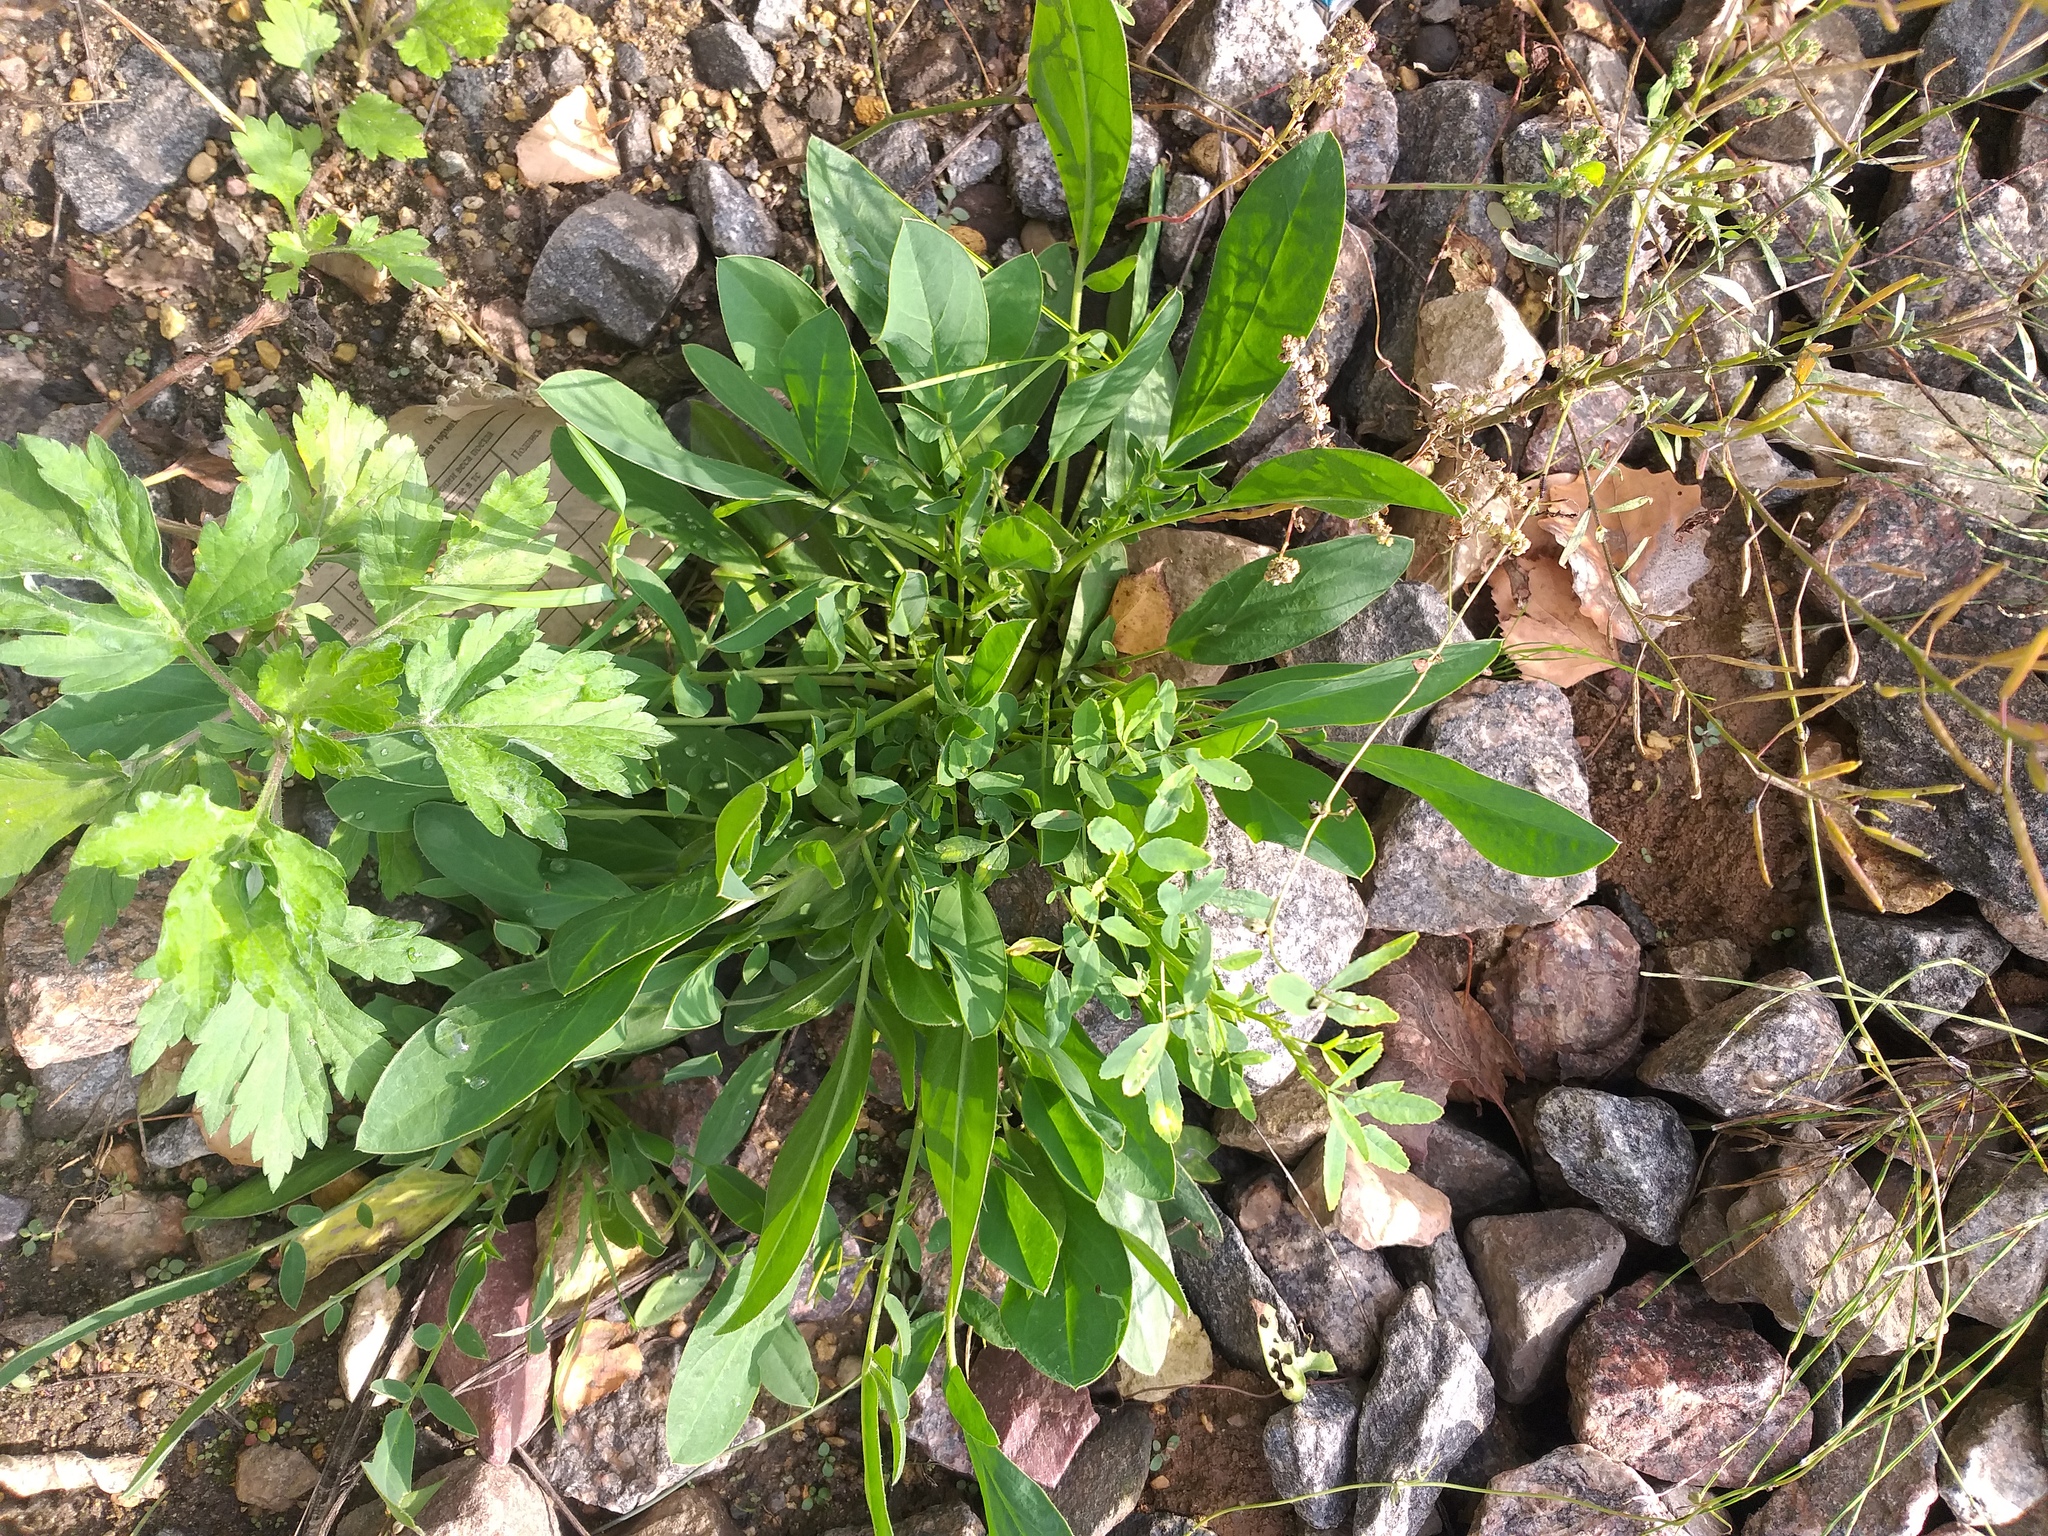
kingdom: Plantae
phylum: Tracheophyta
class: Magnoliopsida
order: Fabales
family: Fabaceae
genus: Anthyllis
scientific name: Anthyllis vulneraria
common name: Kidney vetch
